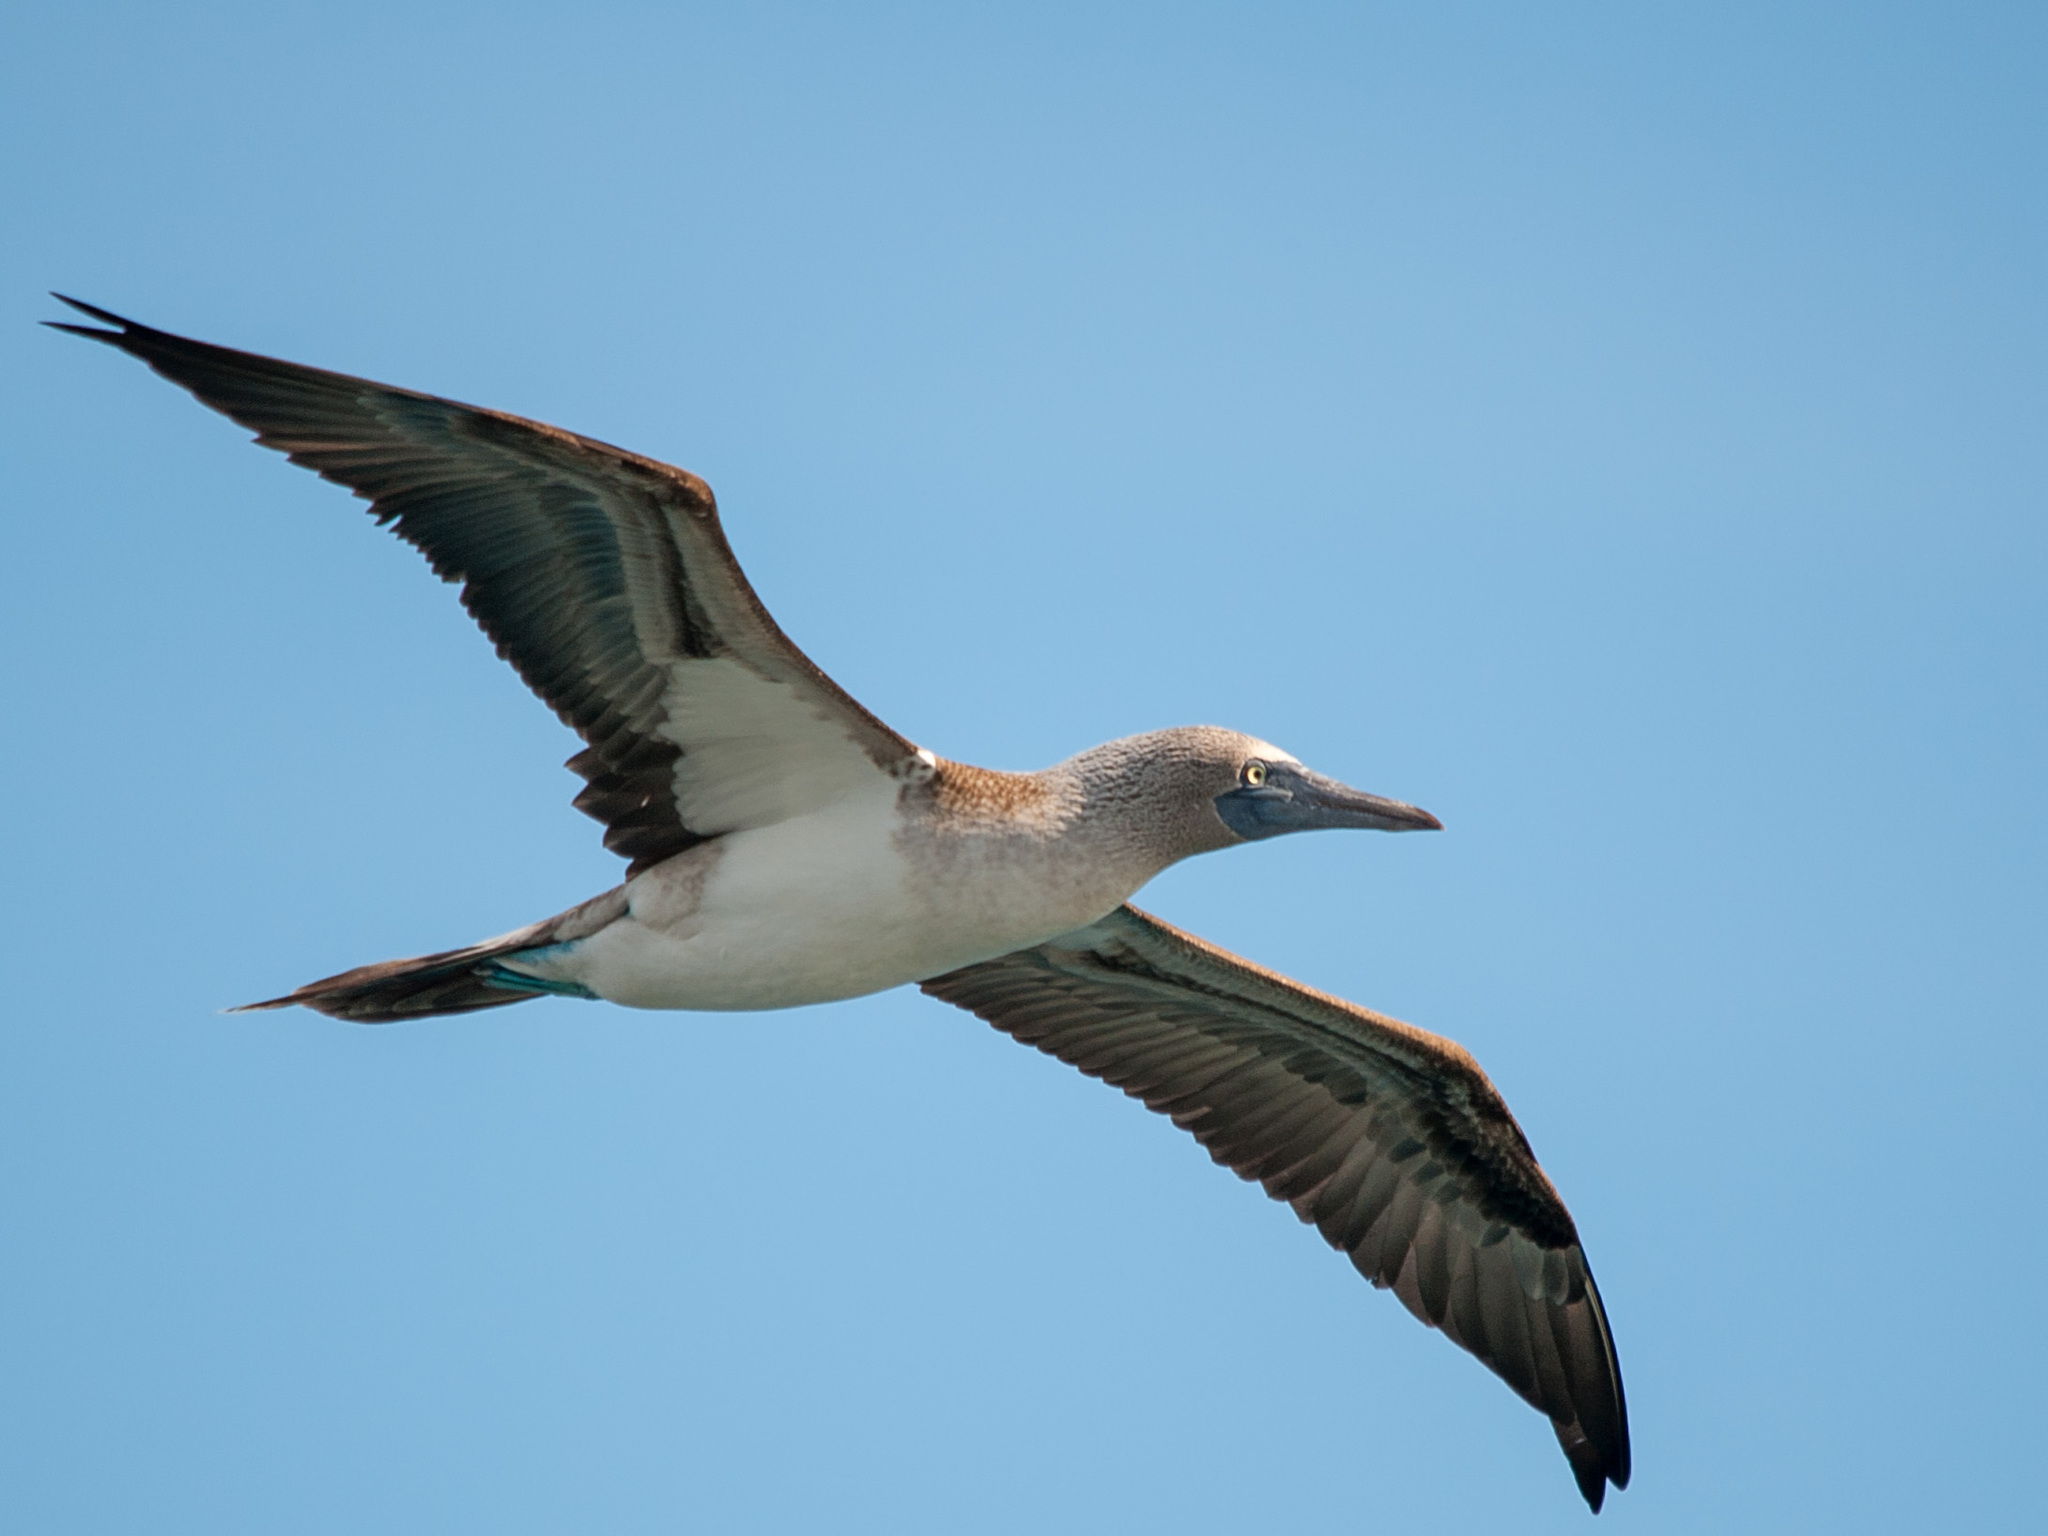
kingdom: Animalia
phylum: Chordata
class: Aves
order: Suliformes
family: Sulidae
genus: Sula
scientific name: Sula nebouxii
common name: Blue-footed booby
